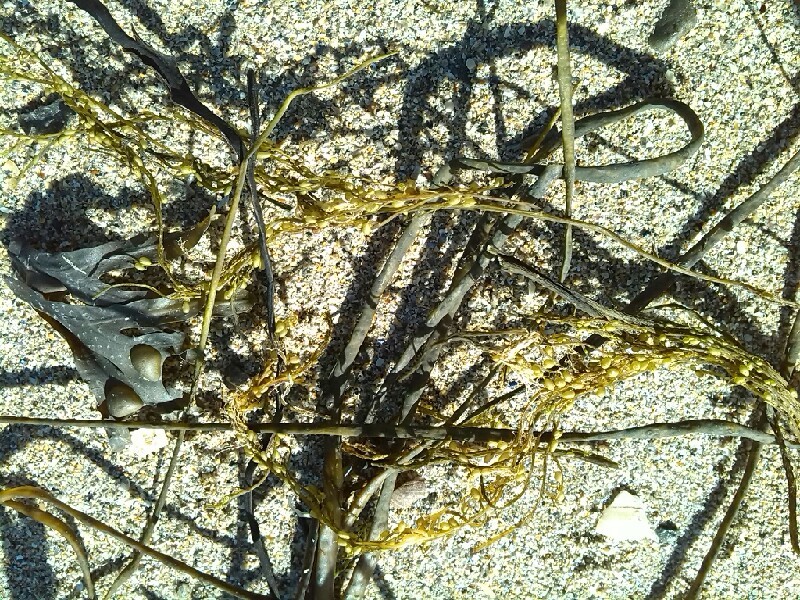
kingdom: Chromista
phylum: Ochrophyta
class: Phaeophyceae
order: Fucales
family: Sargassaceae
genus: Sargassum
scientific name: Sargassum muticum
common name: Japweed
